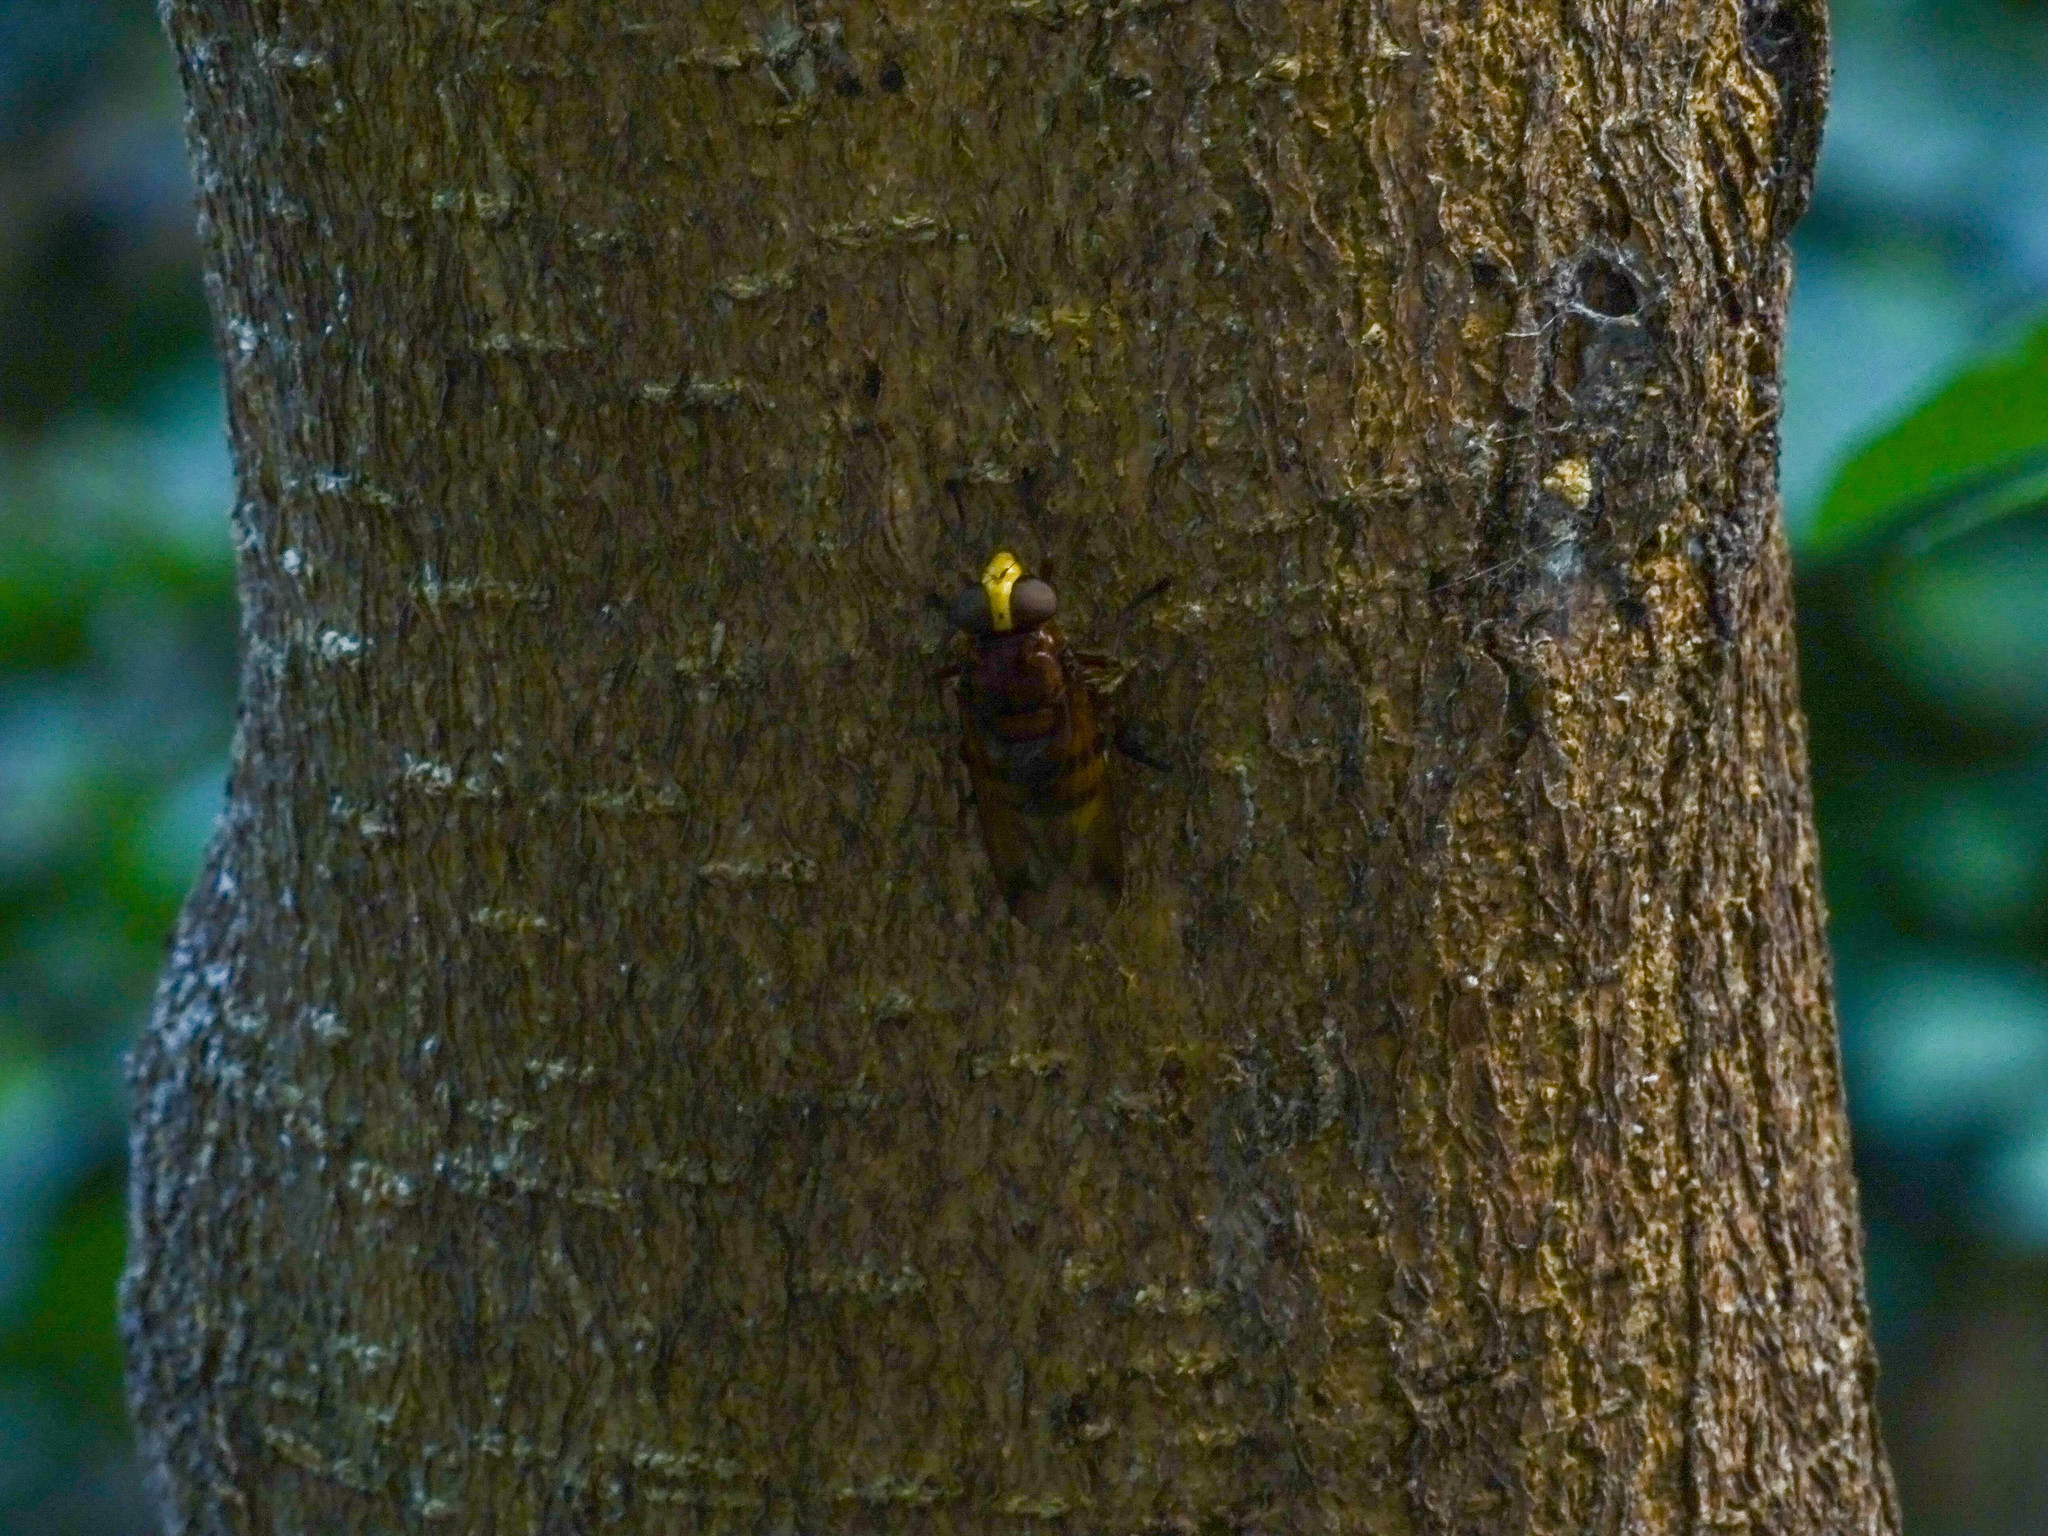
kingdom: Animalia
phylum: Arthropoda
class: Insecta
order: Diptera
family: Syrphidae
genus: Volucella
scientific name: Volucella zonaria
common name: Hornet hoverfly
